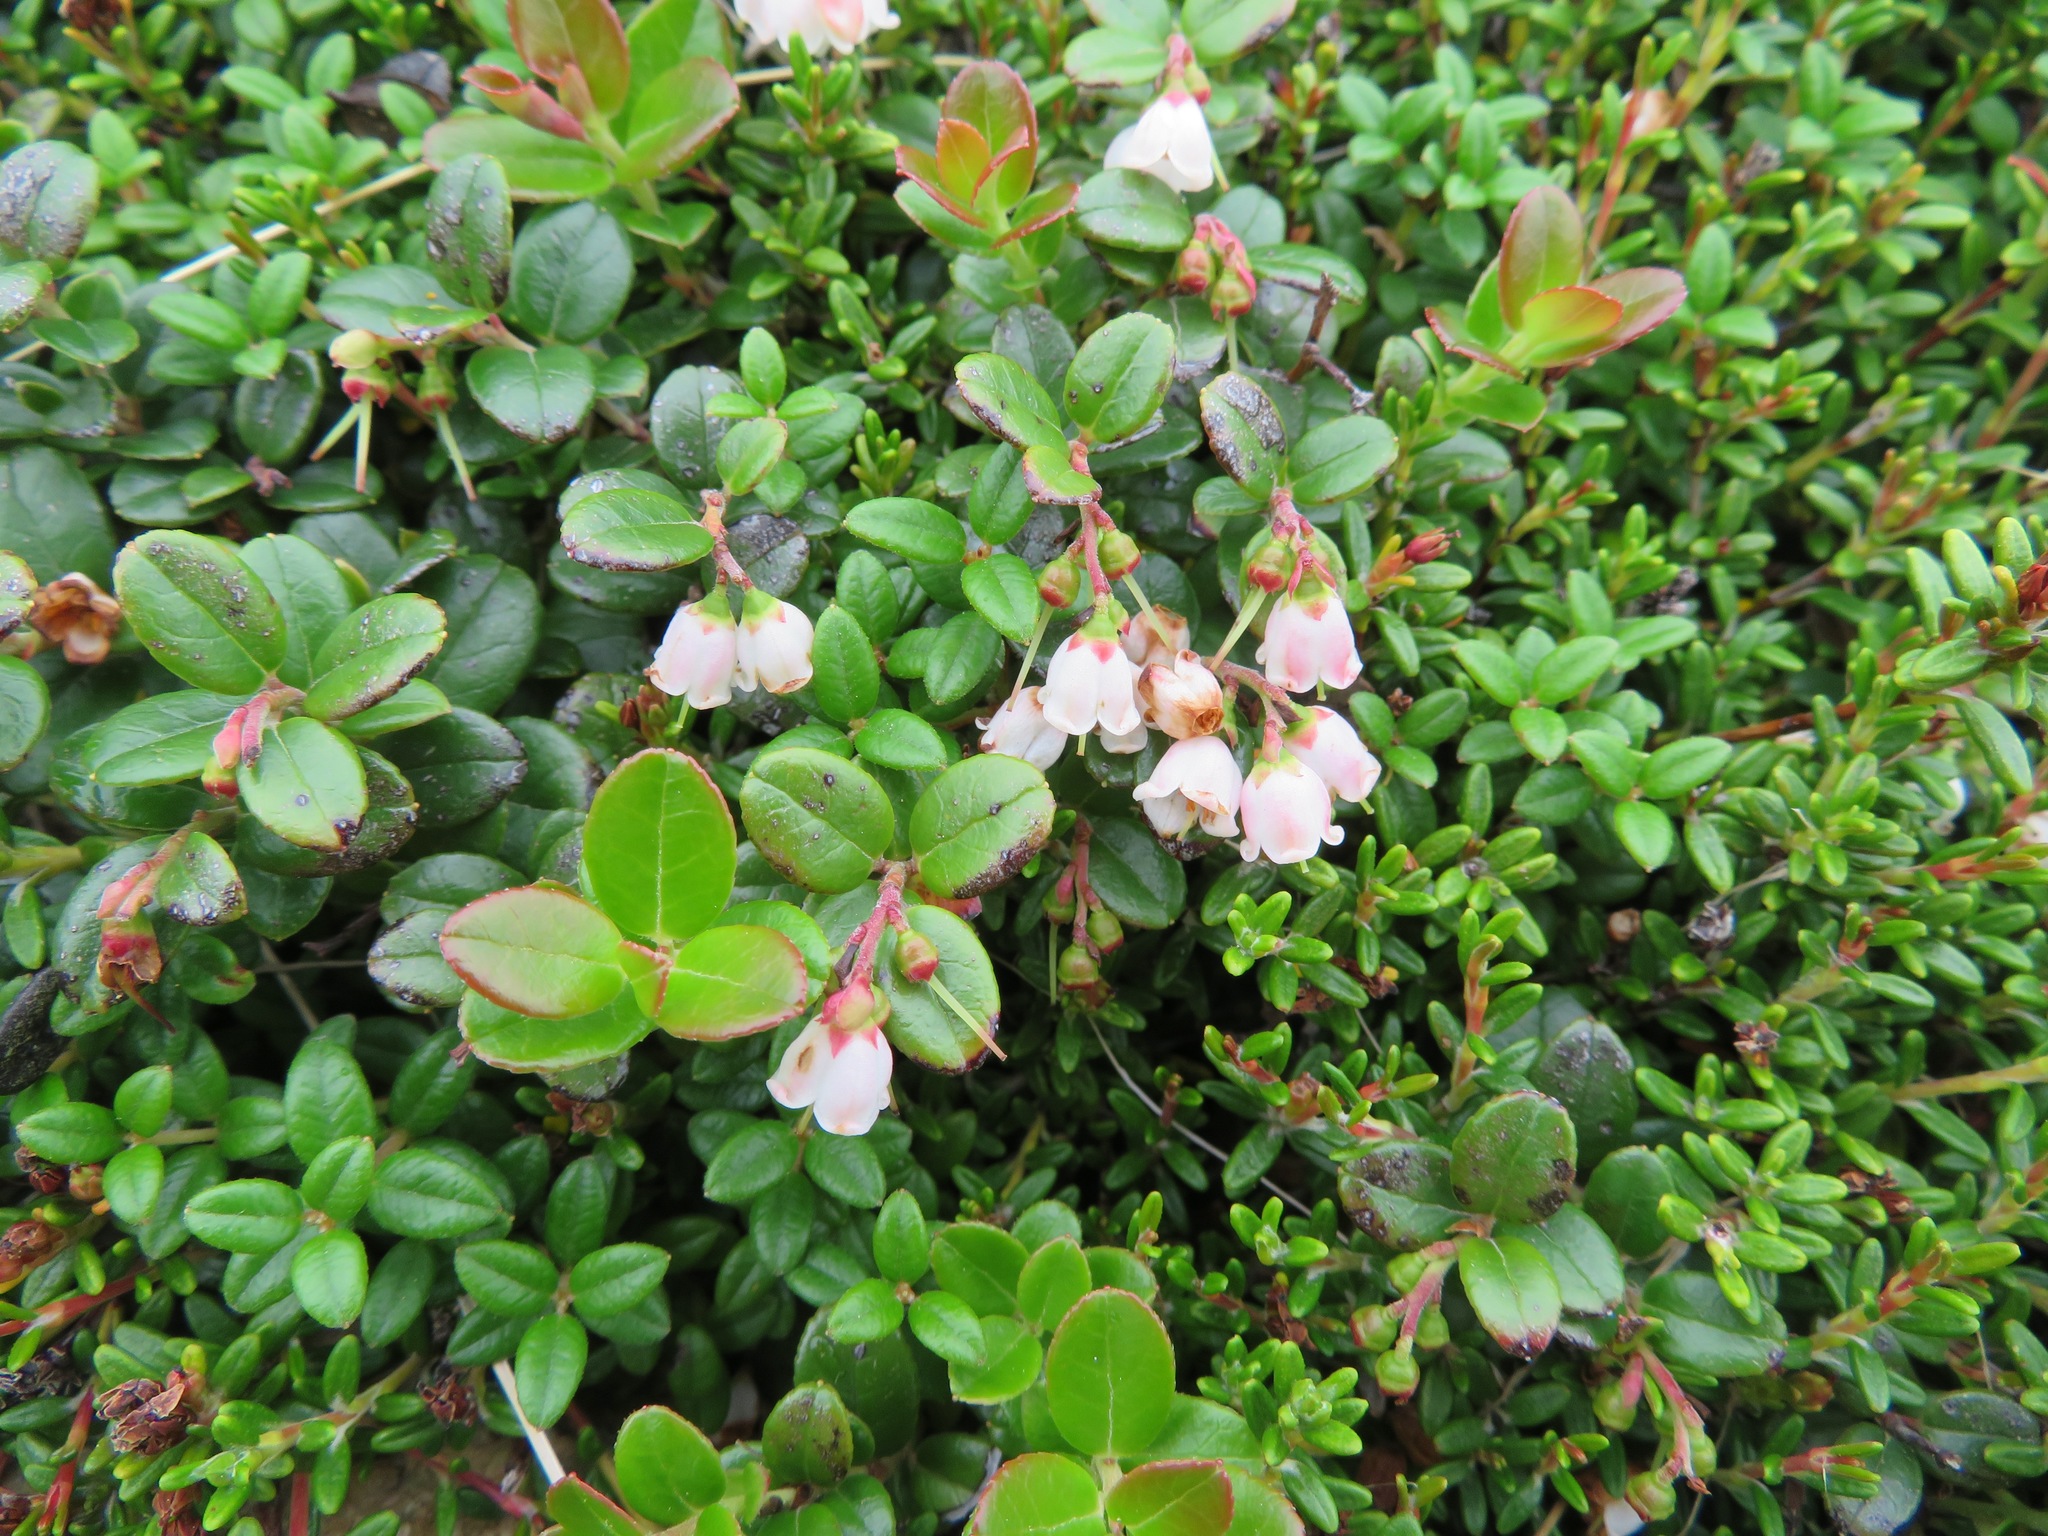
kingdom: Plantae
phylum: Tracheophyta
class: Magnoliopsida
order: Ericales
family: Ericaceae
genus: Vaccinium
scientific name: Vaccinium vitis-idaea
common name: Cowberry
